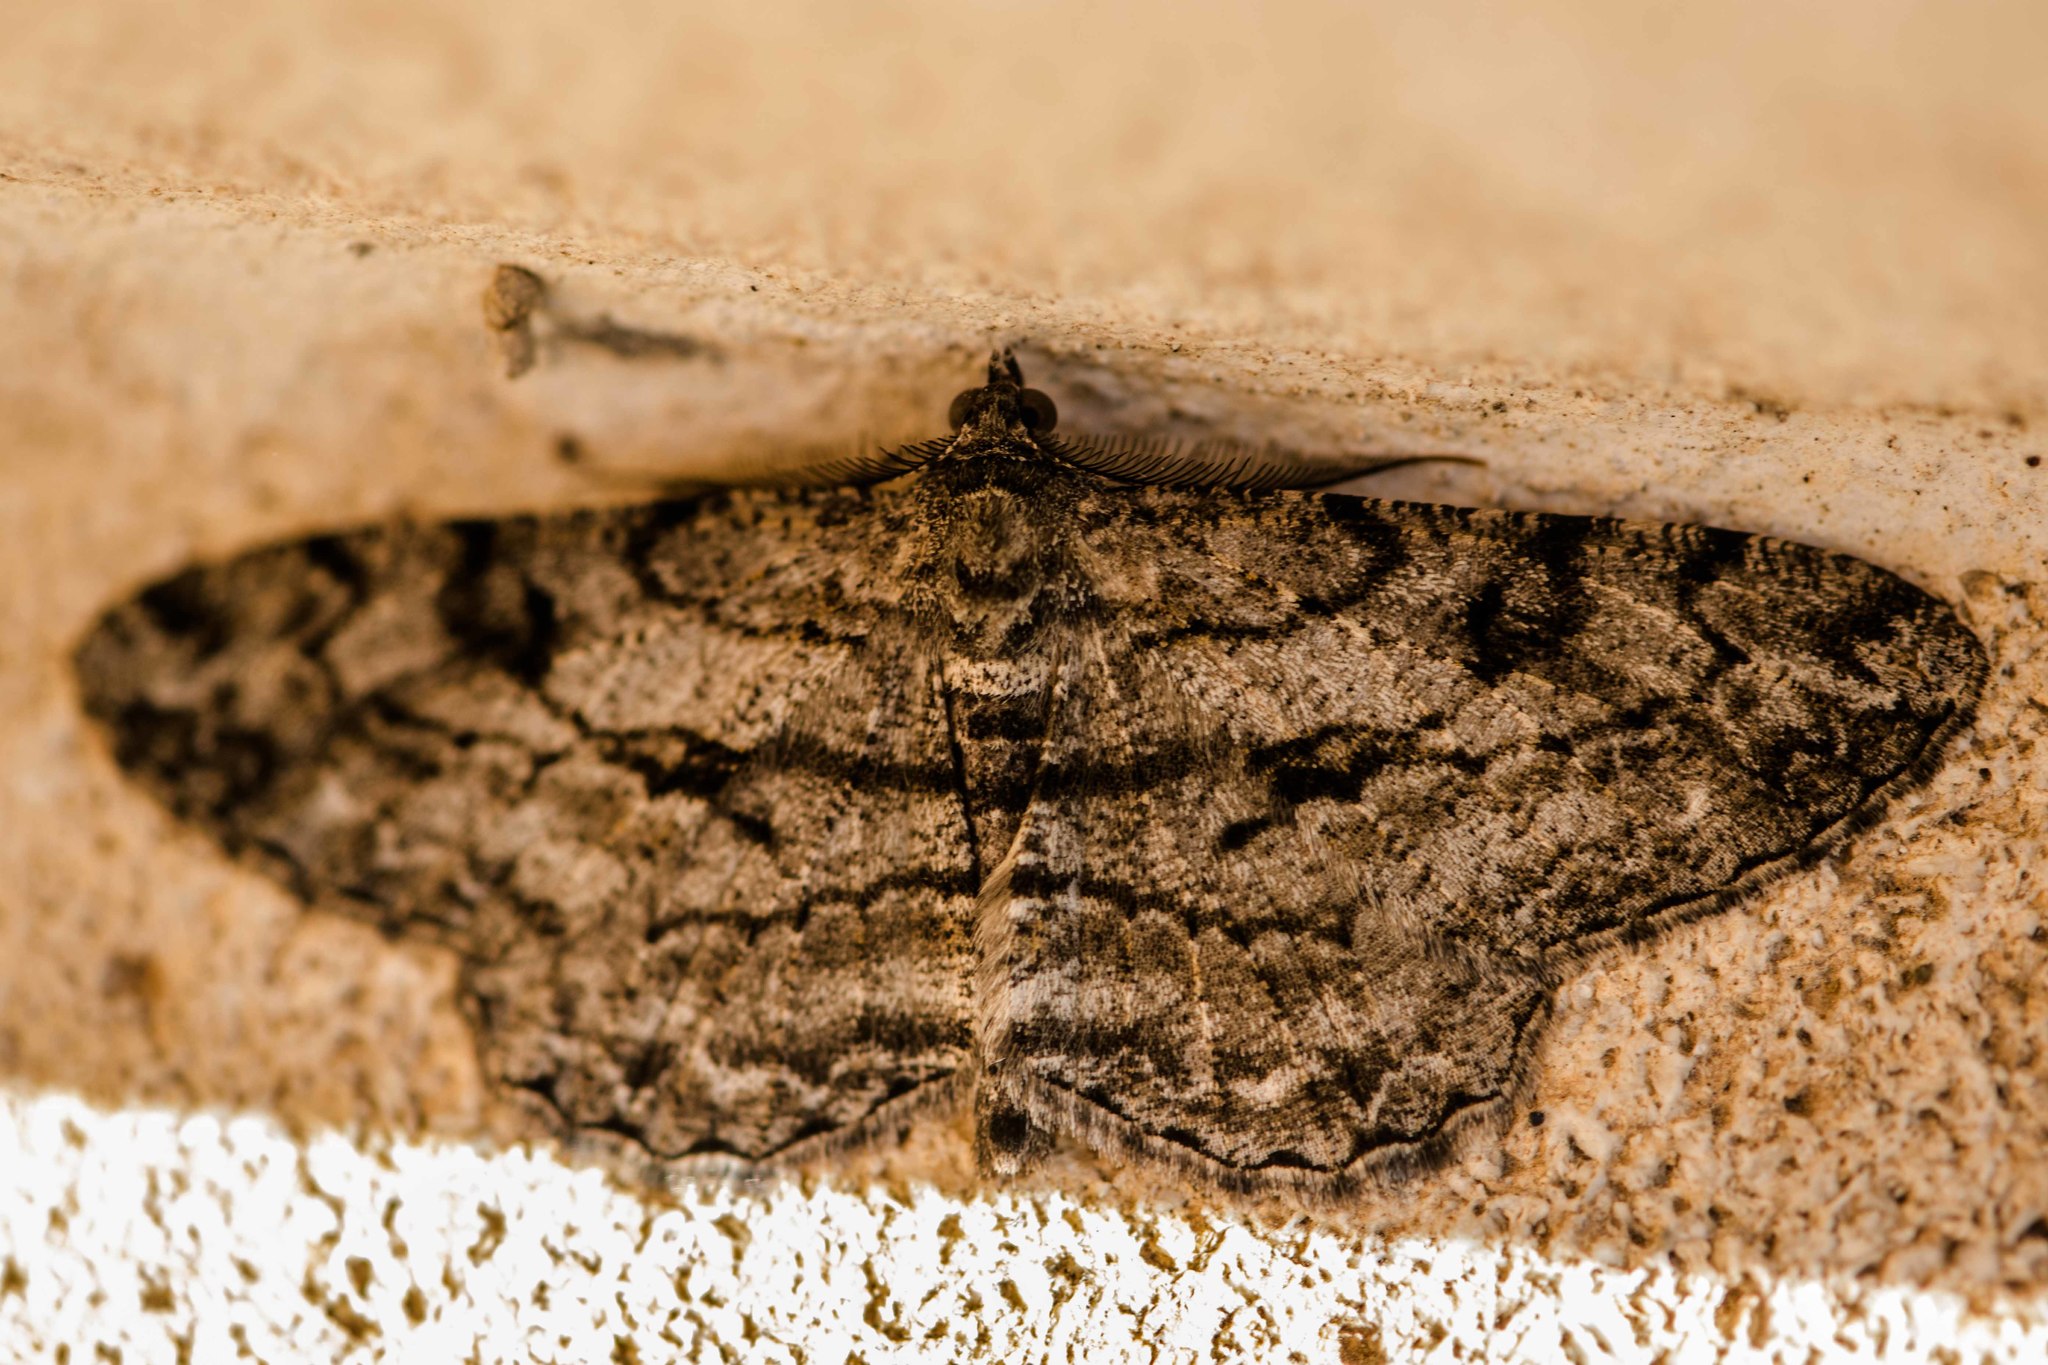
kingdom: Animalia
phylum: Arthropoda
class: Insecta
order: Lepidoptera
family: Geometridae
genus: Peribatodes
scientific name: Peribatodes rhomboidaria
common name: Willow beauty
